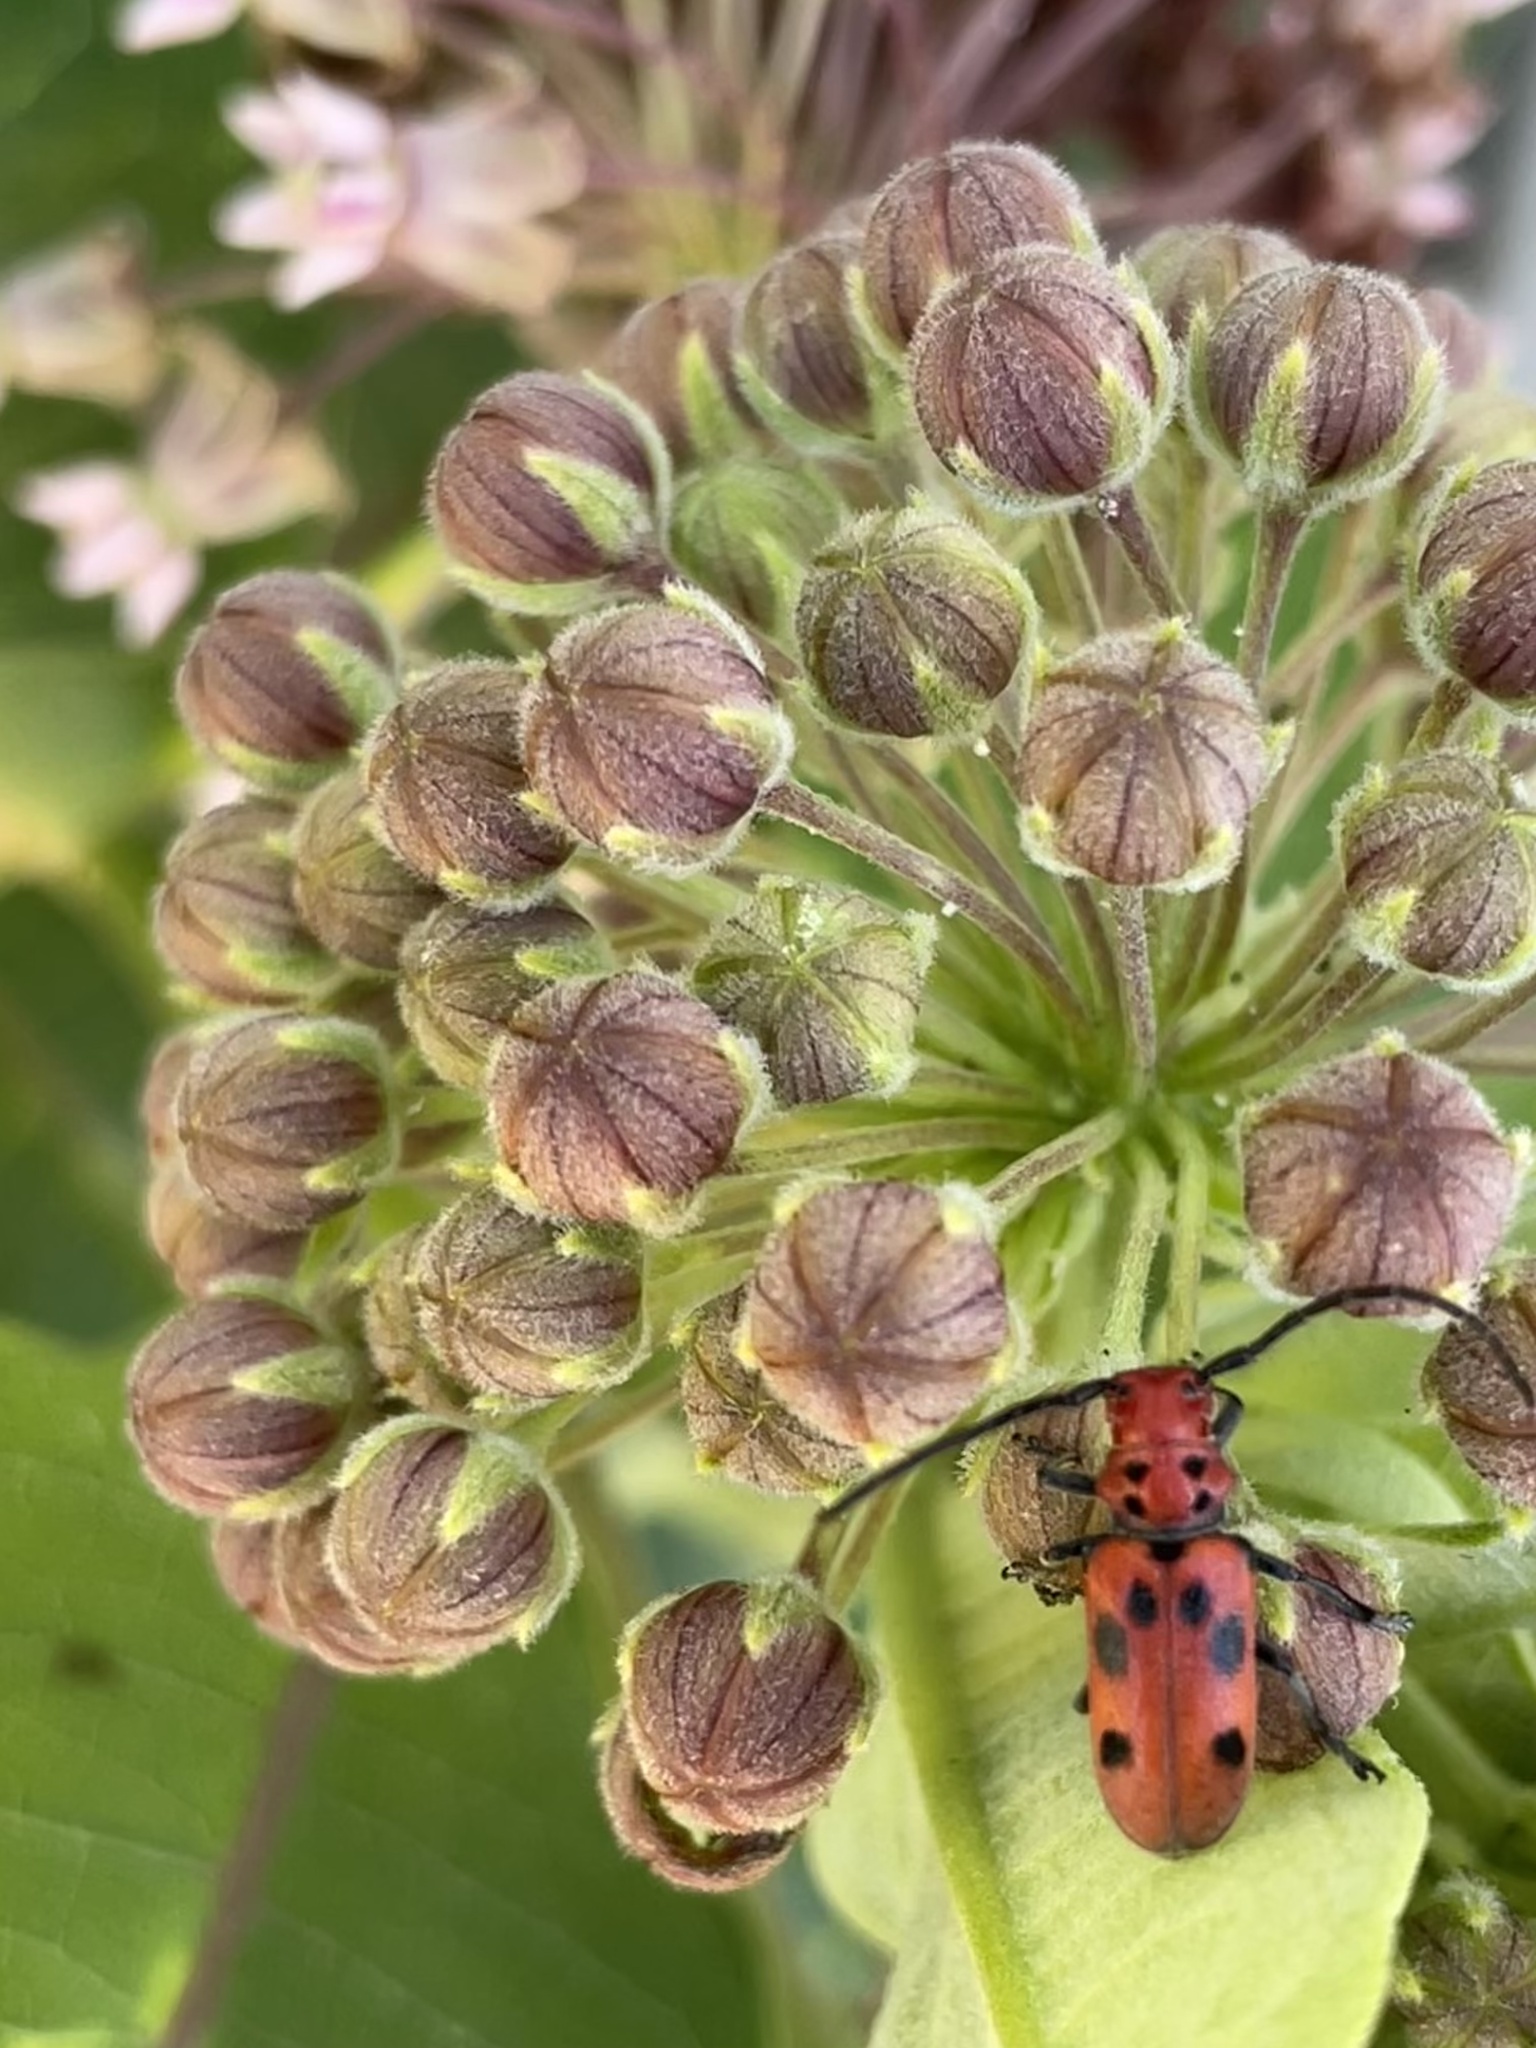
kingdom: Animalia
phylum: Arthropoda
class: Insecta
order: Coleoptera
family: Cerambycidae
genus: Tetraopes
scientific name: Tetraopes tetrophthalmus
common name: Red milkweed beetle
